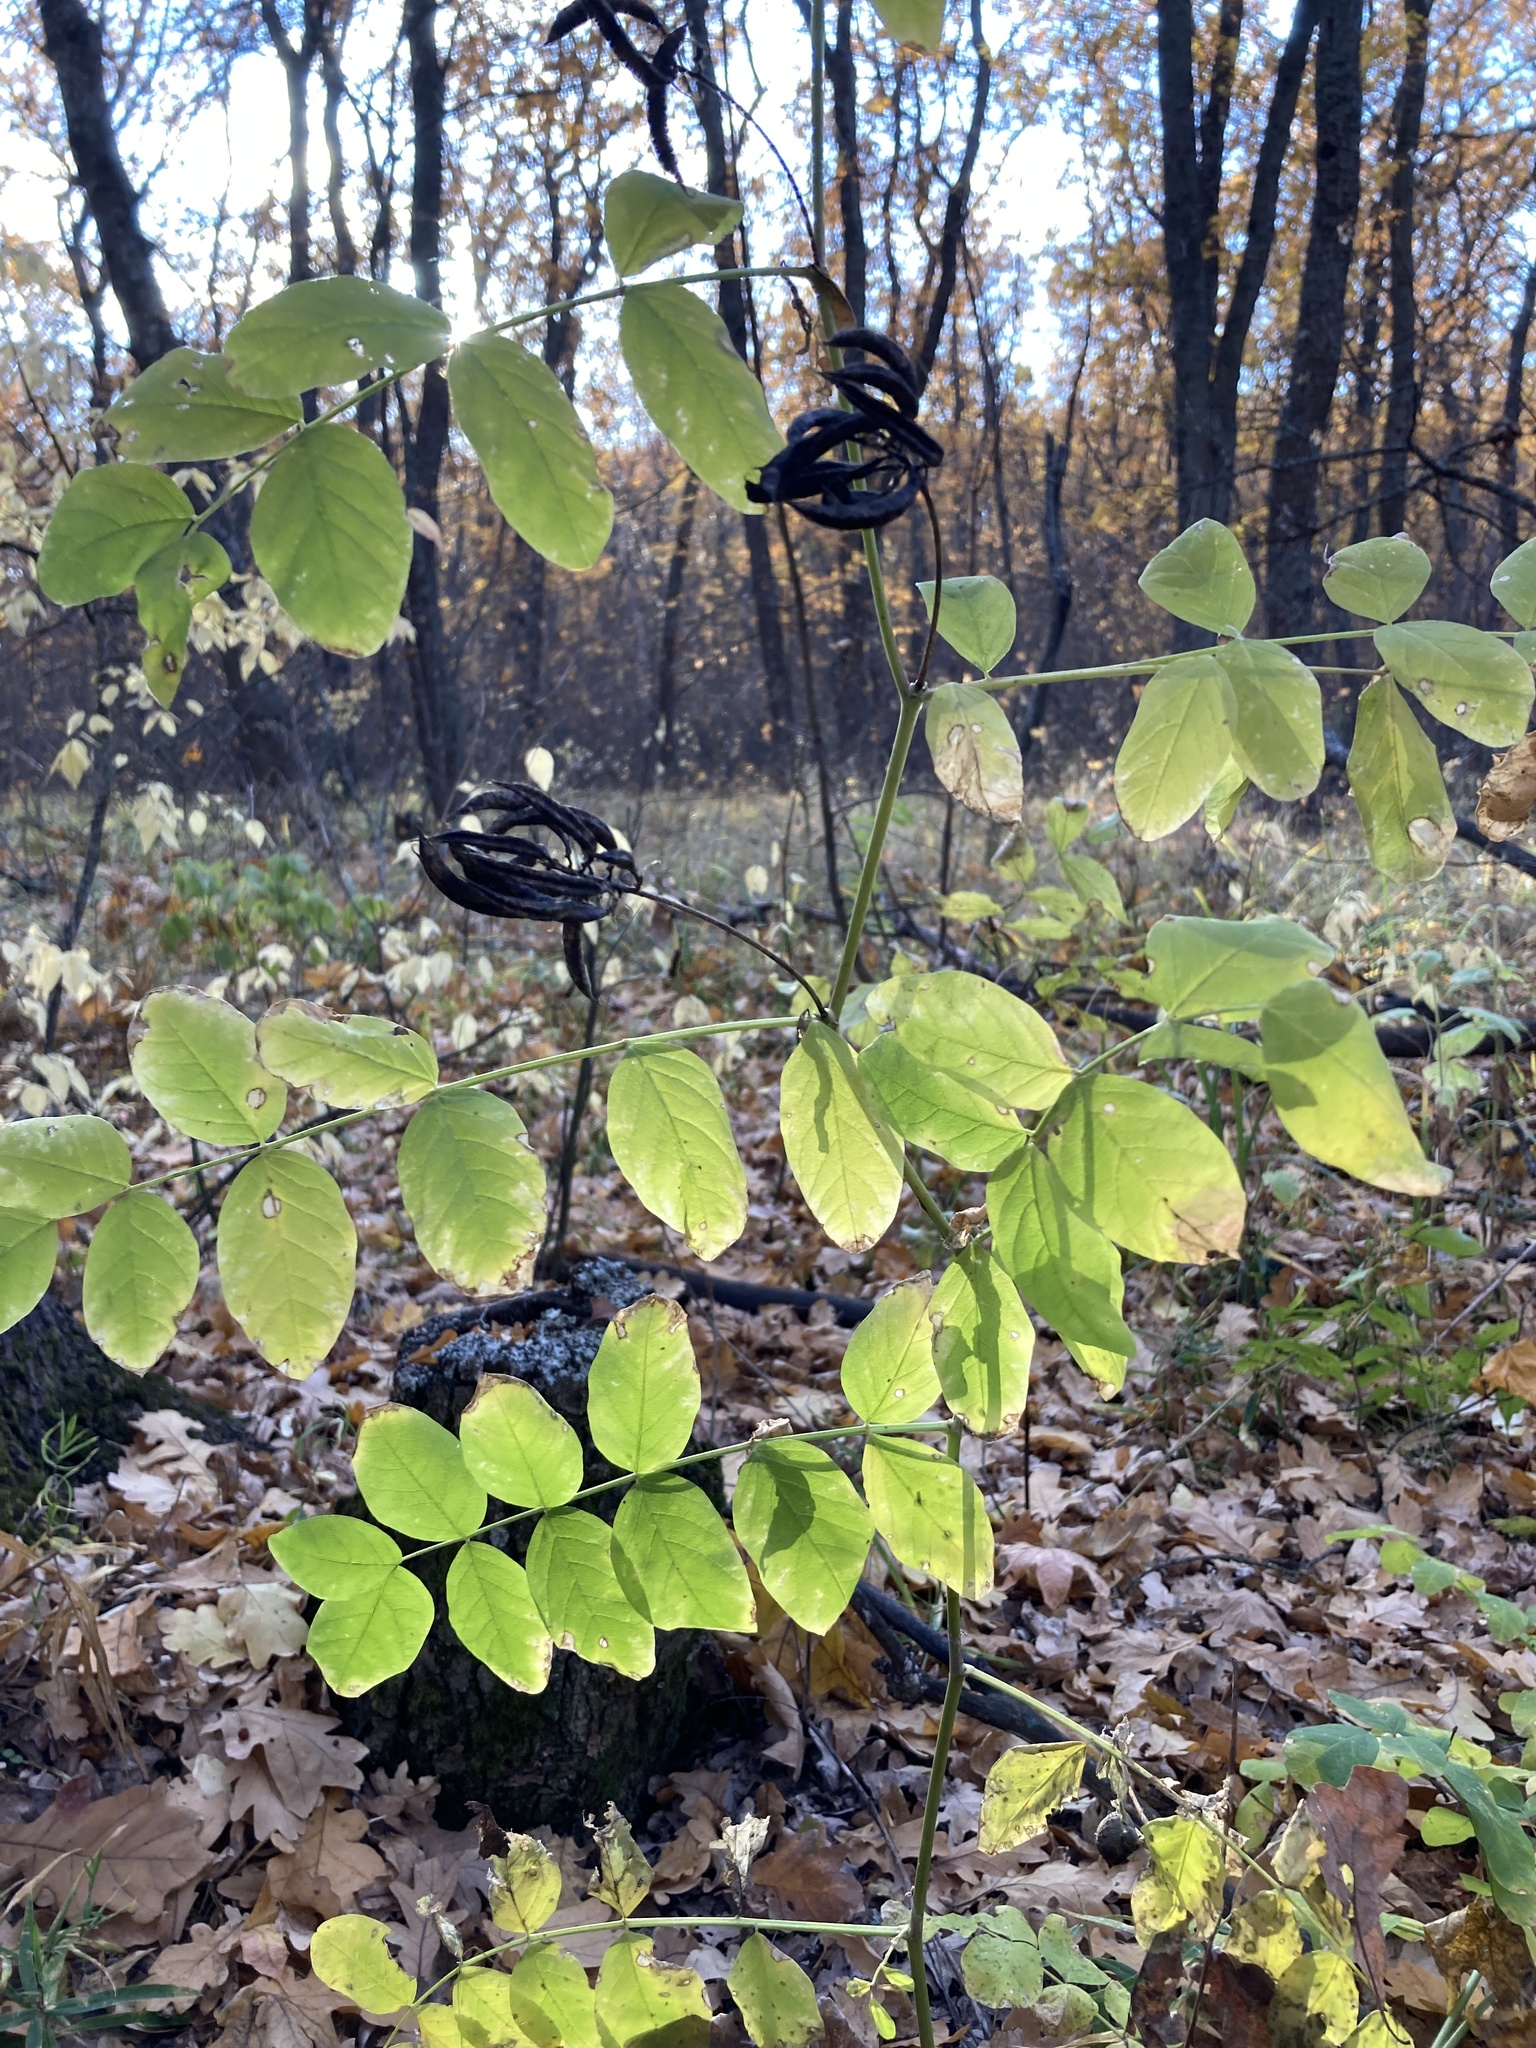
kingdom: Plantae
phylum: Tracheophyta
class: Magnoliopsida
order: Fabales
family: Fabaceae
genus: Astragalus
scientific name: Astragalus glycyphyllos
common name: Wild liquorice
